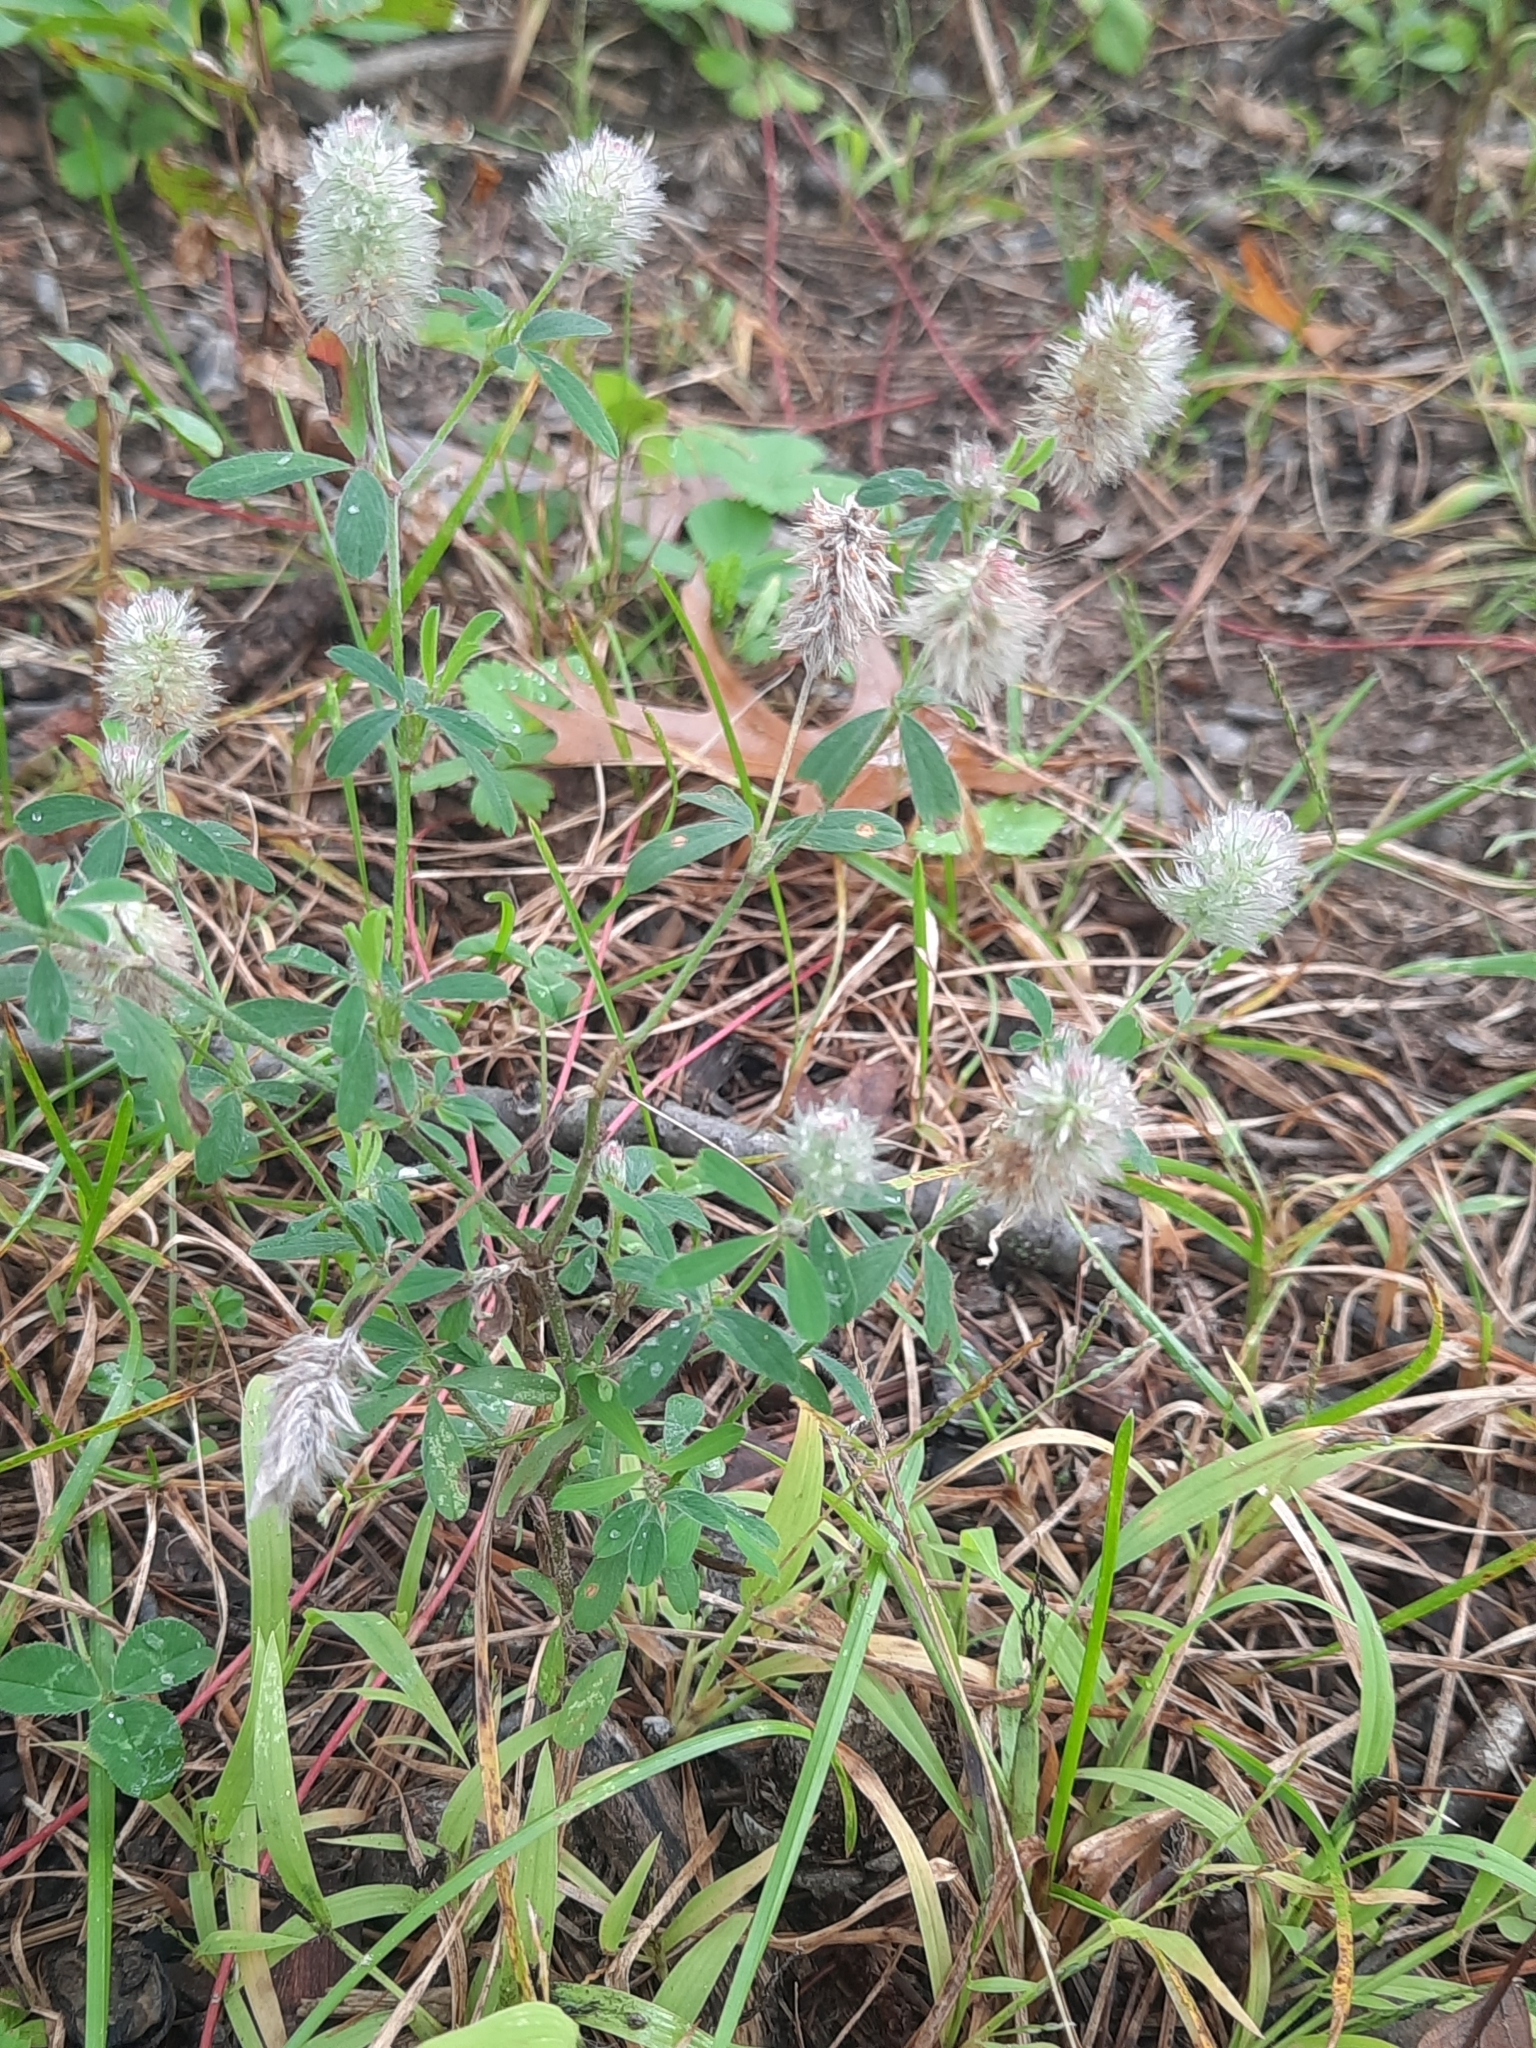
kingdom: Plantae
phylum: Tracheophyta
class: Magnoliopsida
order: Fabales
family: Fabaceae
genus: Trifolium
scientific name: Trifolium arvense
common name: Hare's-foot clover
